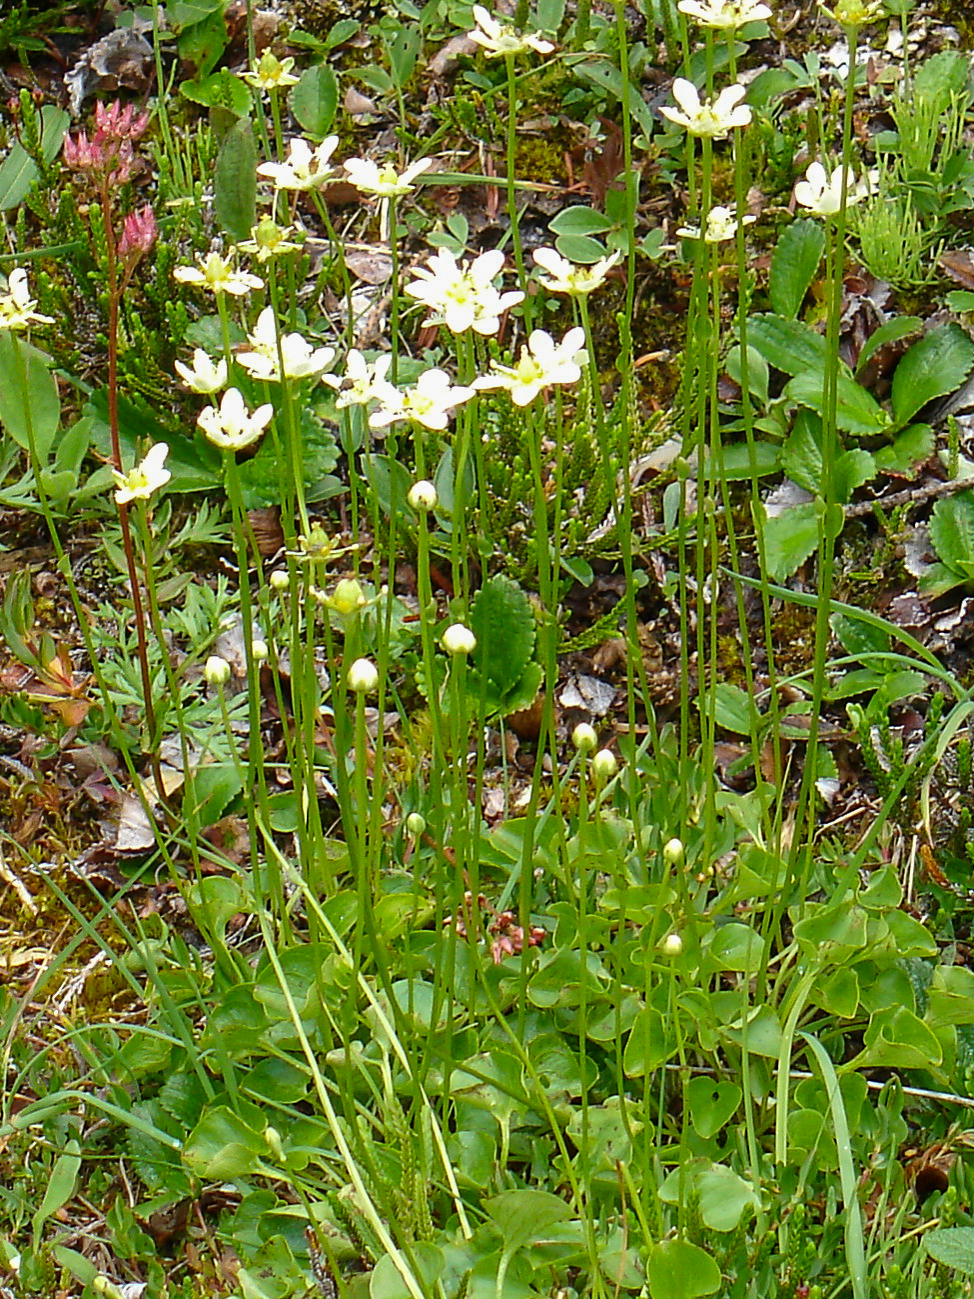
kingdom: Plantae
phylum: Tracheophyta
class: Magnoliopsida
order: Celastrales
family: Parnassiaceae
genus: Parnassia
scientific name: Parnassia fimbriata
